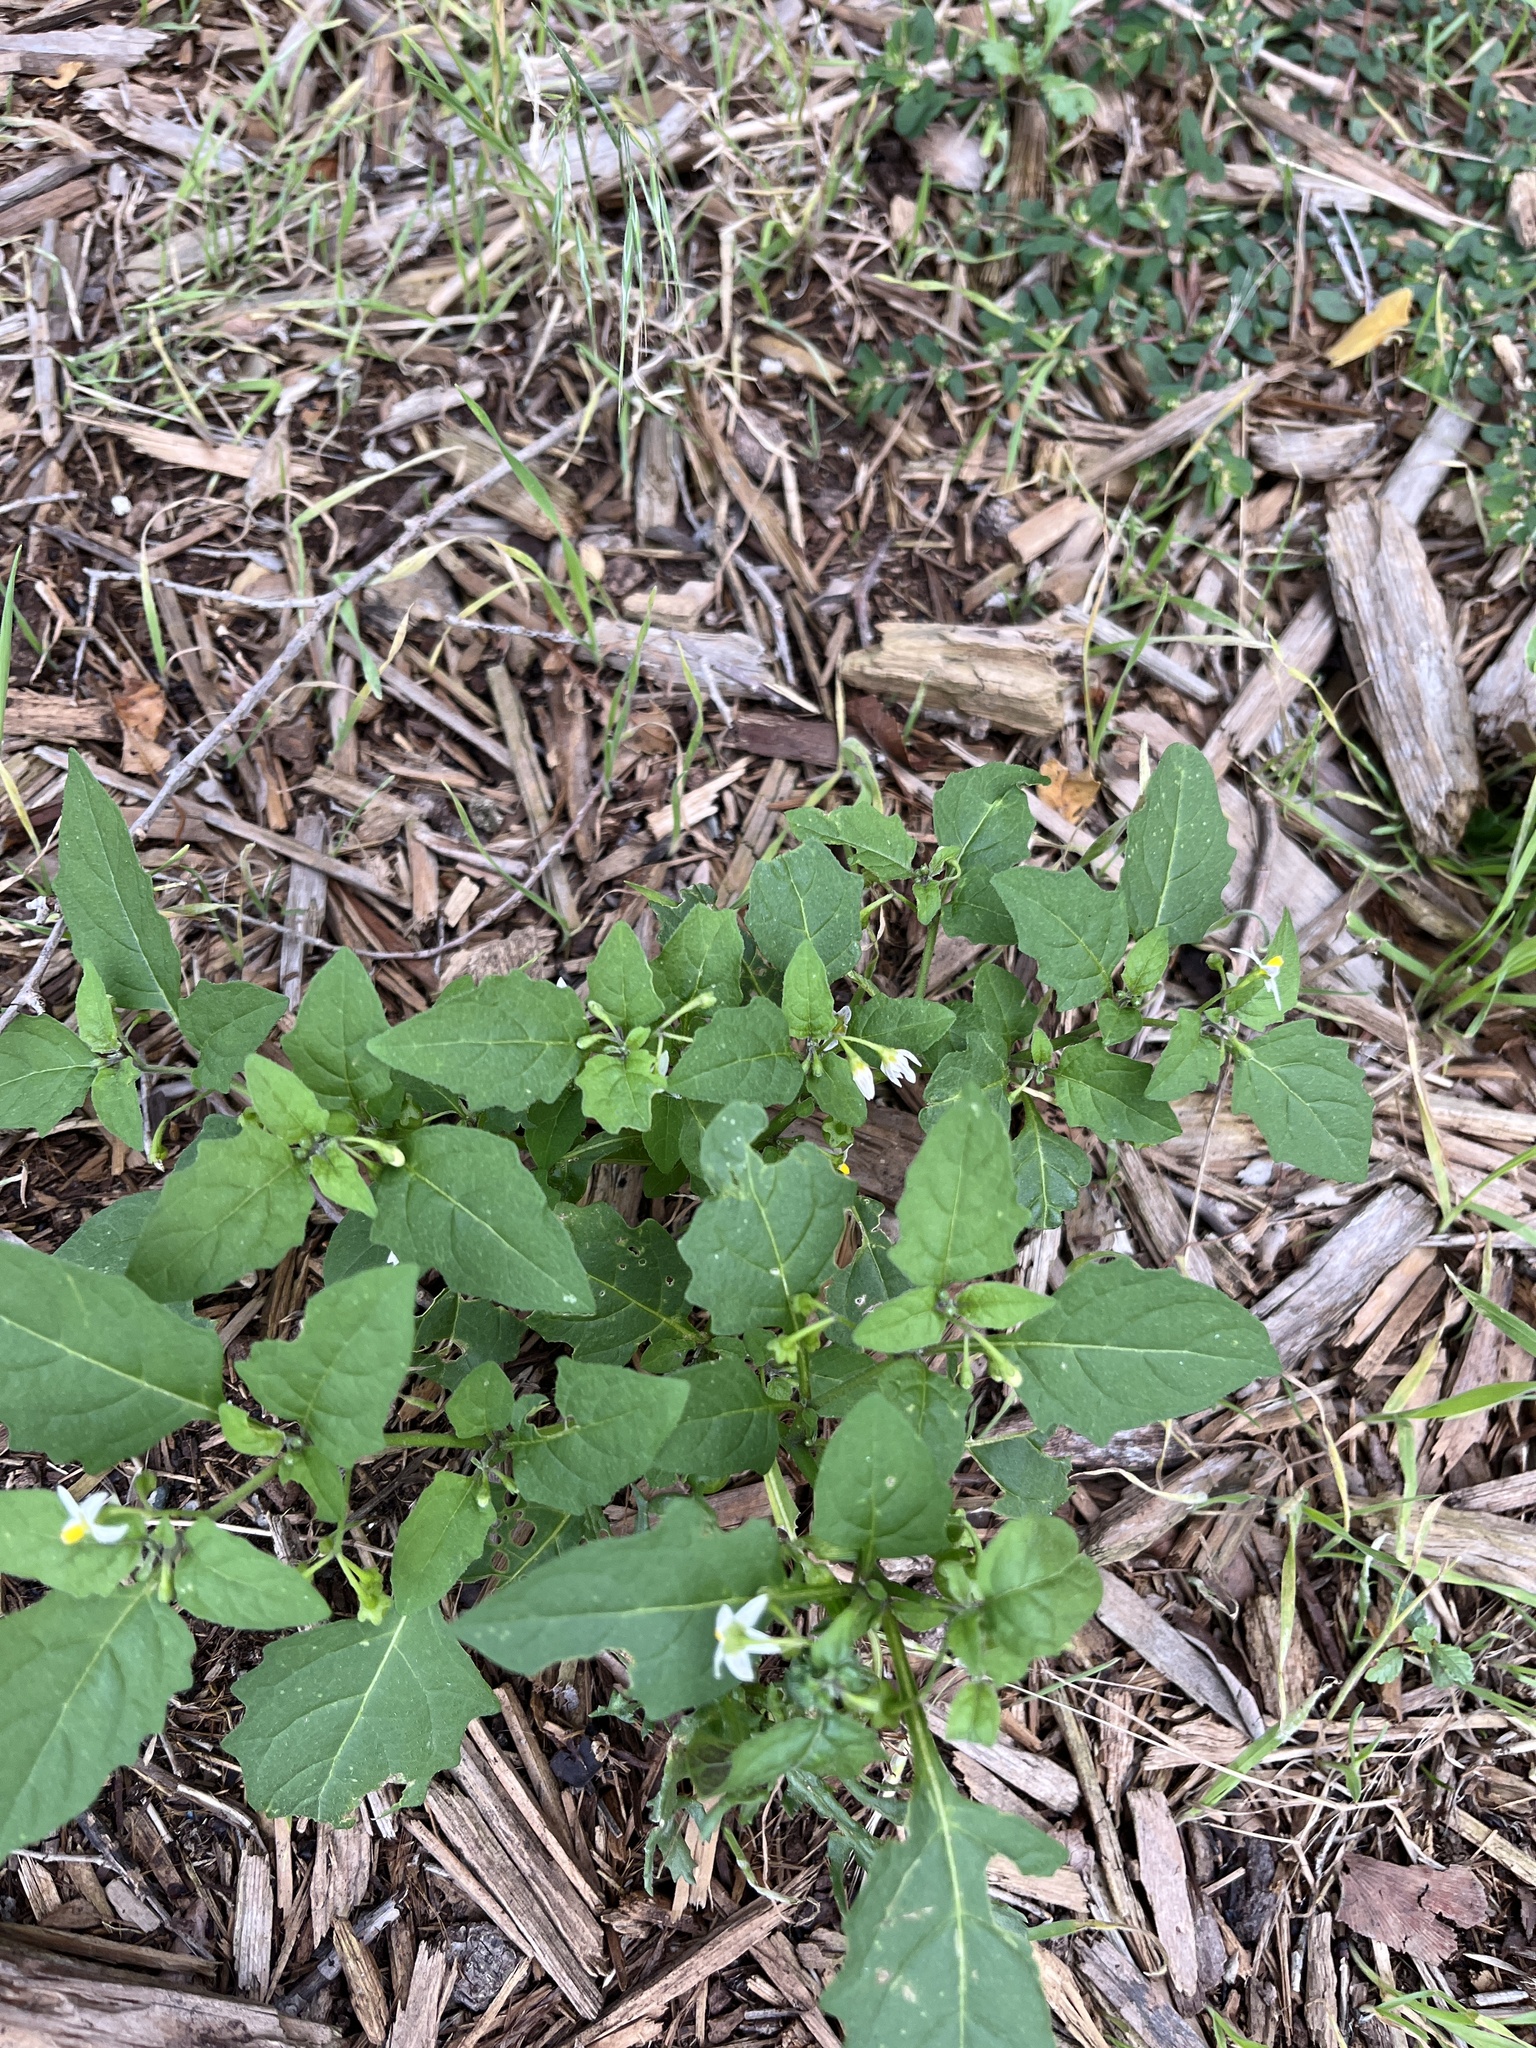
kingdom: Plantae
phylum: Tracheophyta
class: Magnoliopsida
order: Solanales
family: Solanaceae
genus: Solanum
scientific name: Solanum emulans
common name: Eastern black nightshade
